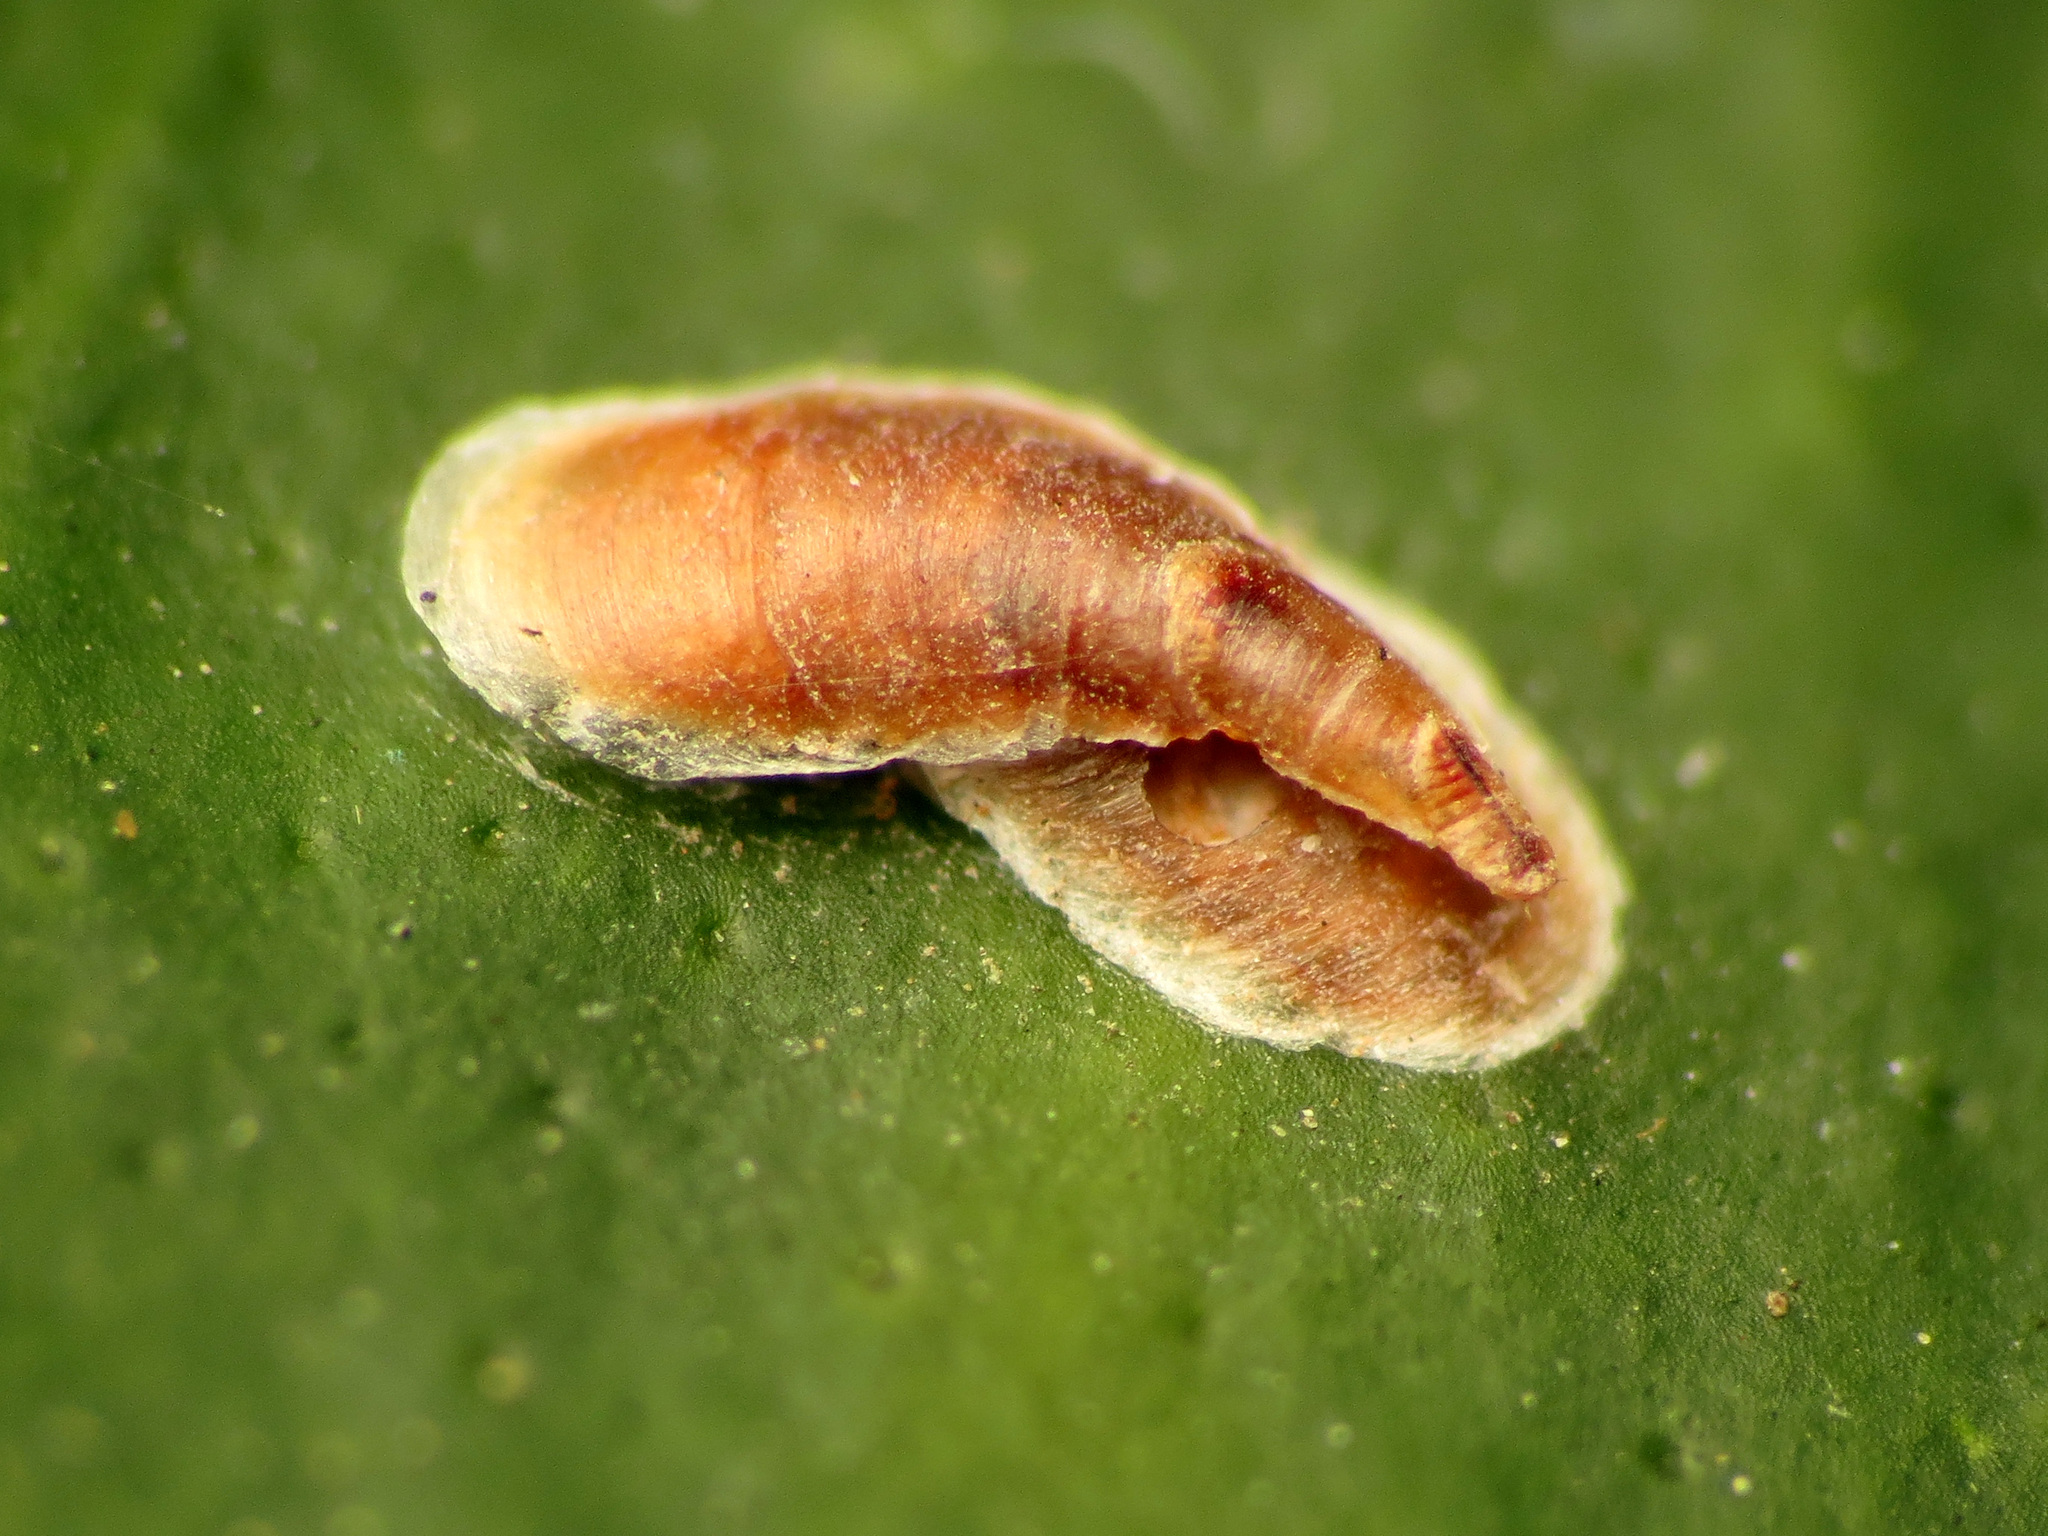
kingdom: Animalia
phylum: Arthropoda
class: Insecta
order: Hemiptera
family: Diaspididae
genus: Lepidosaphes
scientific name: Lepidosaphes beckii
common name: Purple scale
